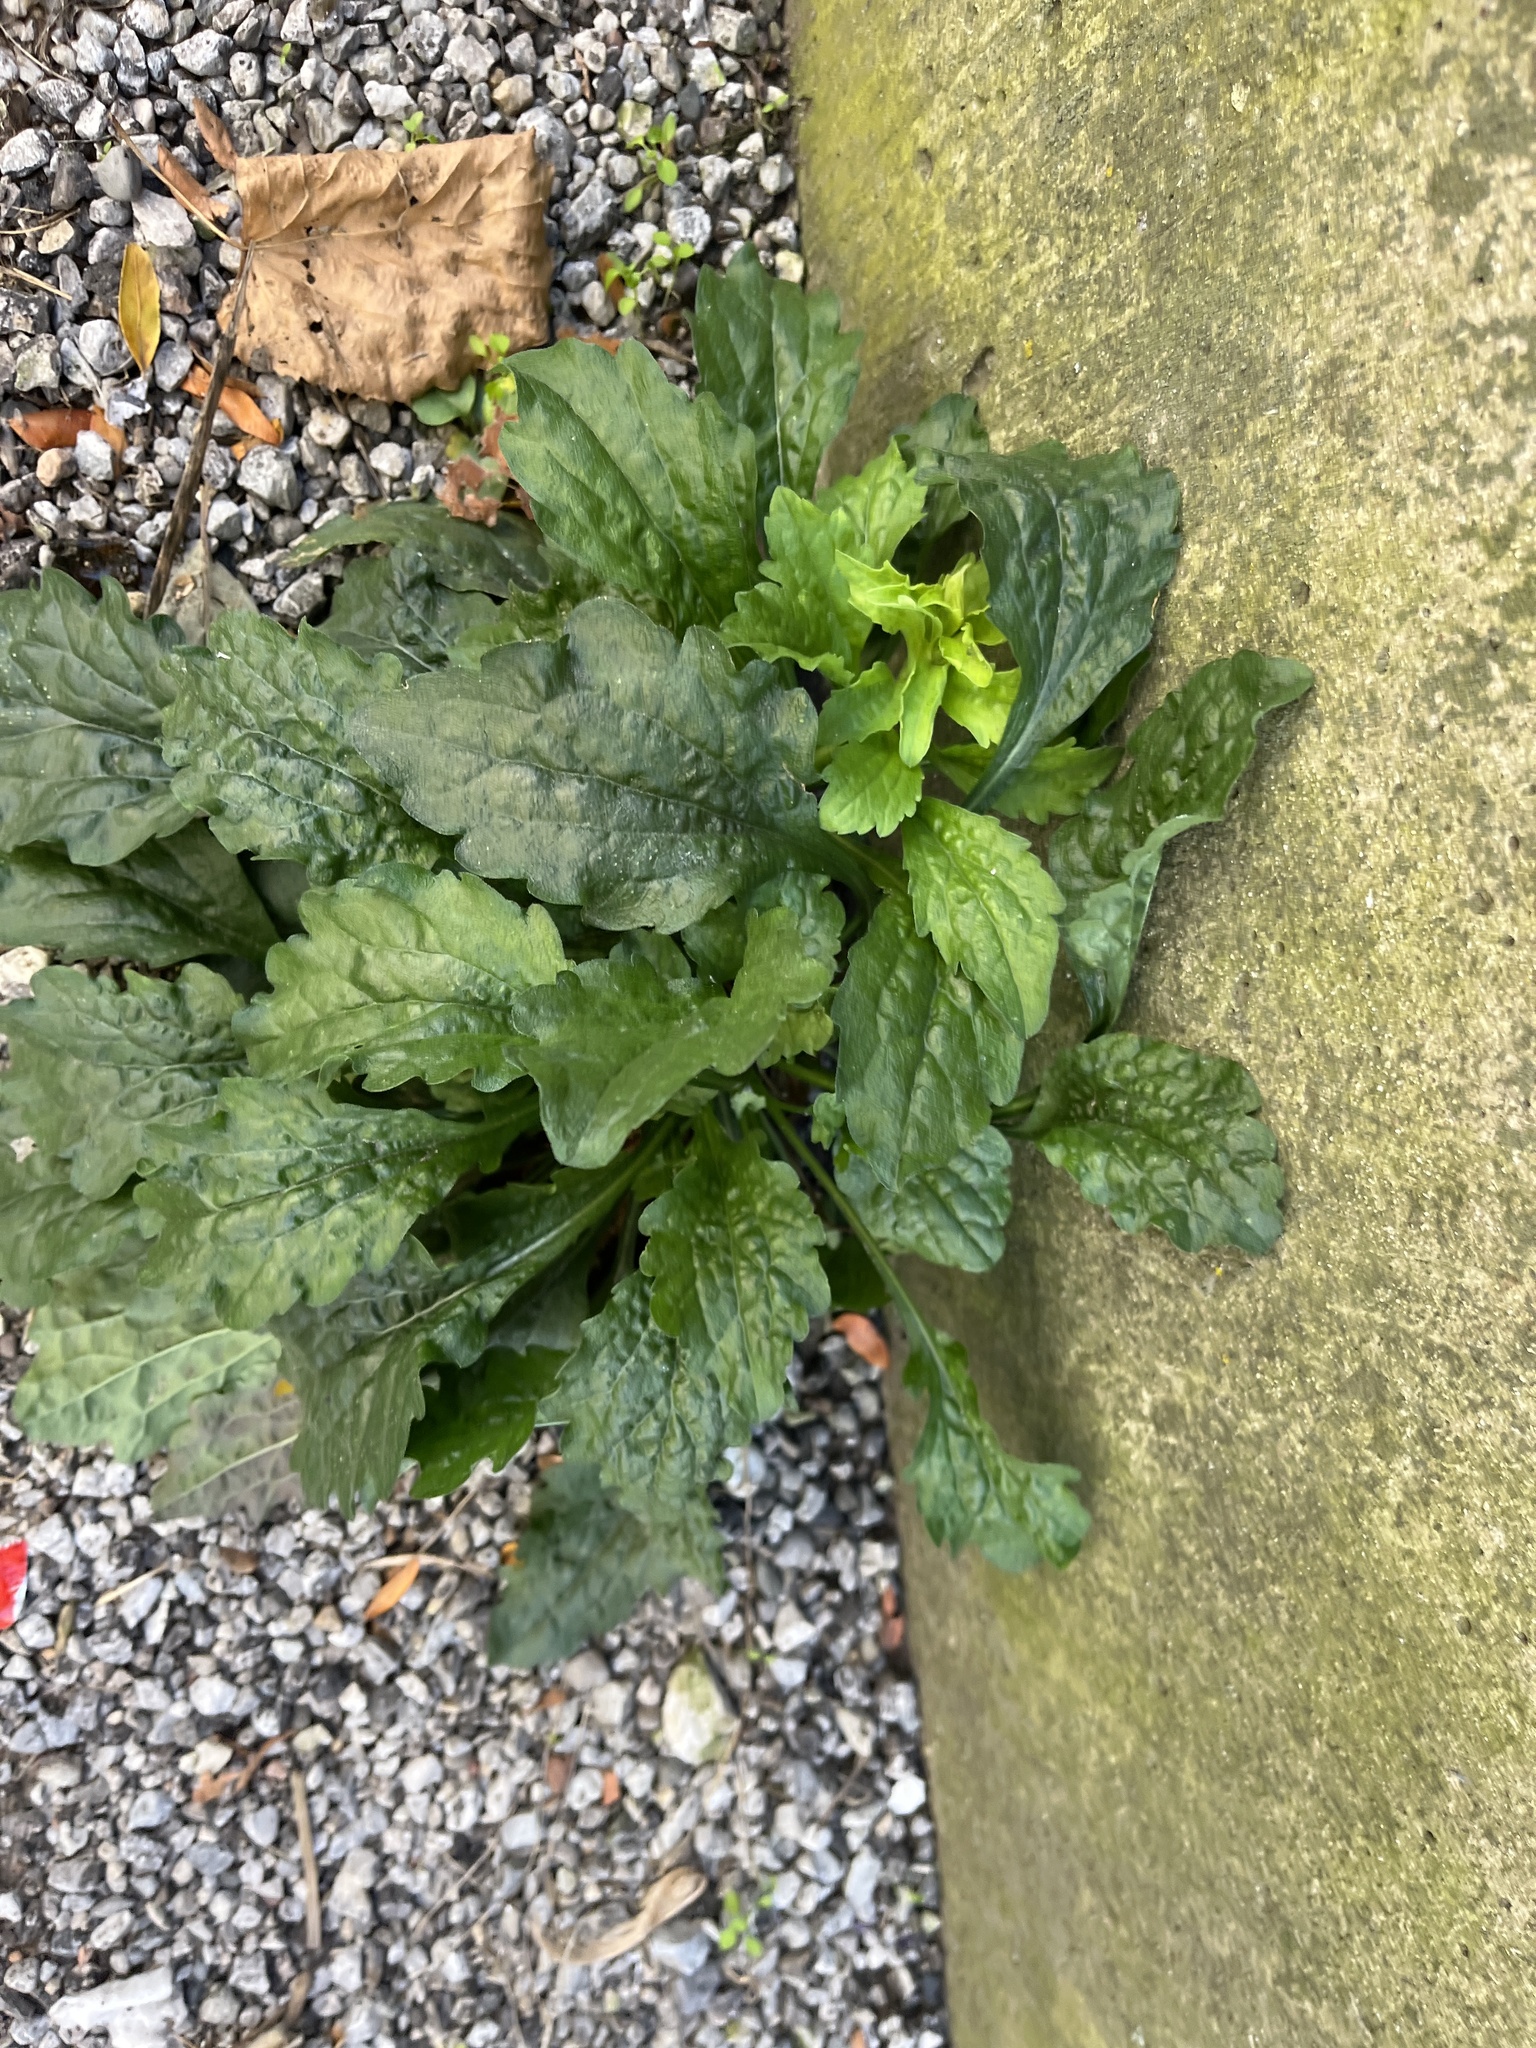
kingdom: Plantae
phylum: Tracheophyta
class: Magnoliopsida
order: Asterales
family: Asteraceae
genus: Erigeron
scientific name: Erigeron annuus
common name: Tall fleabane
